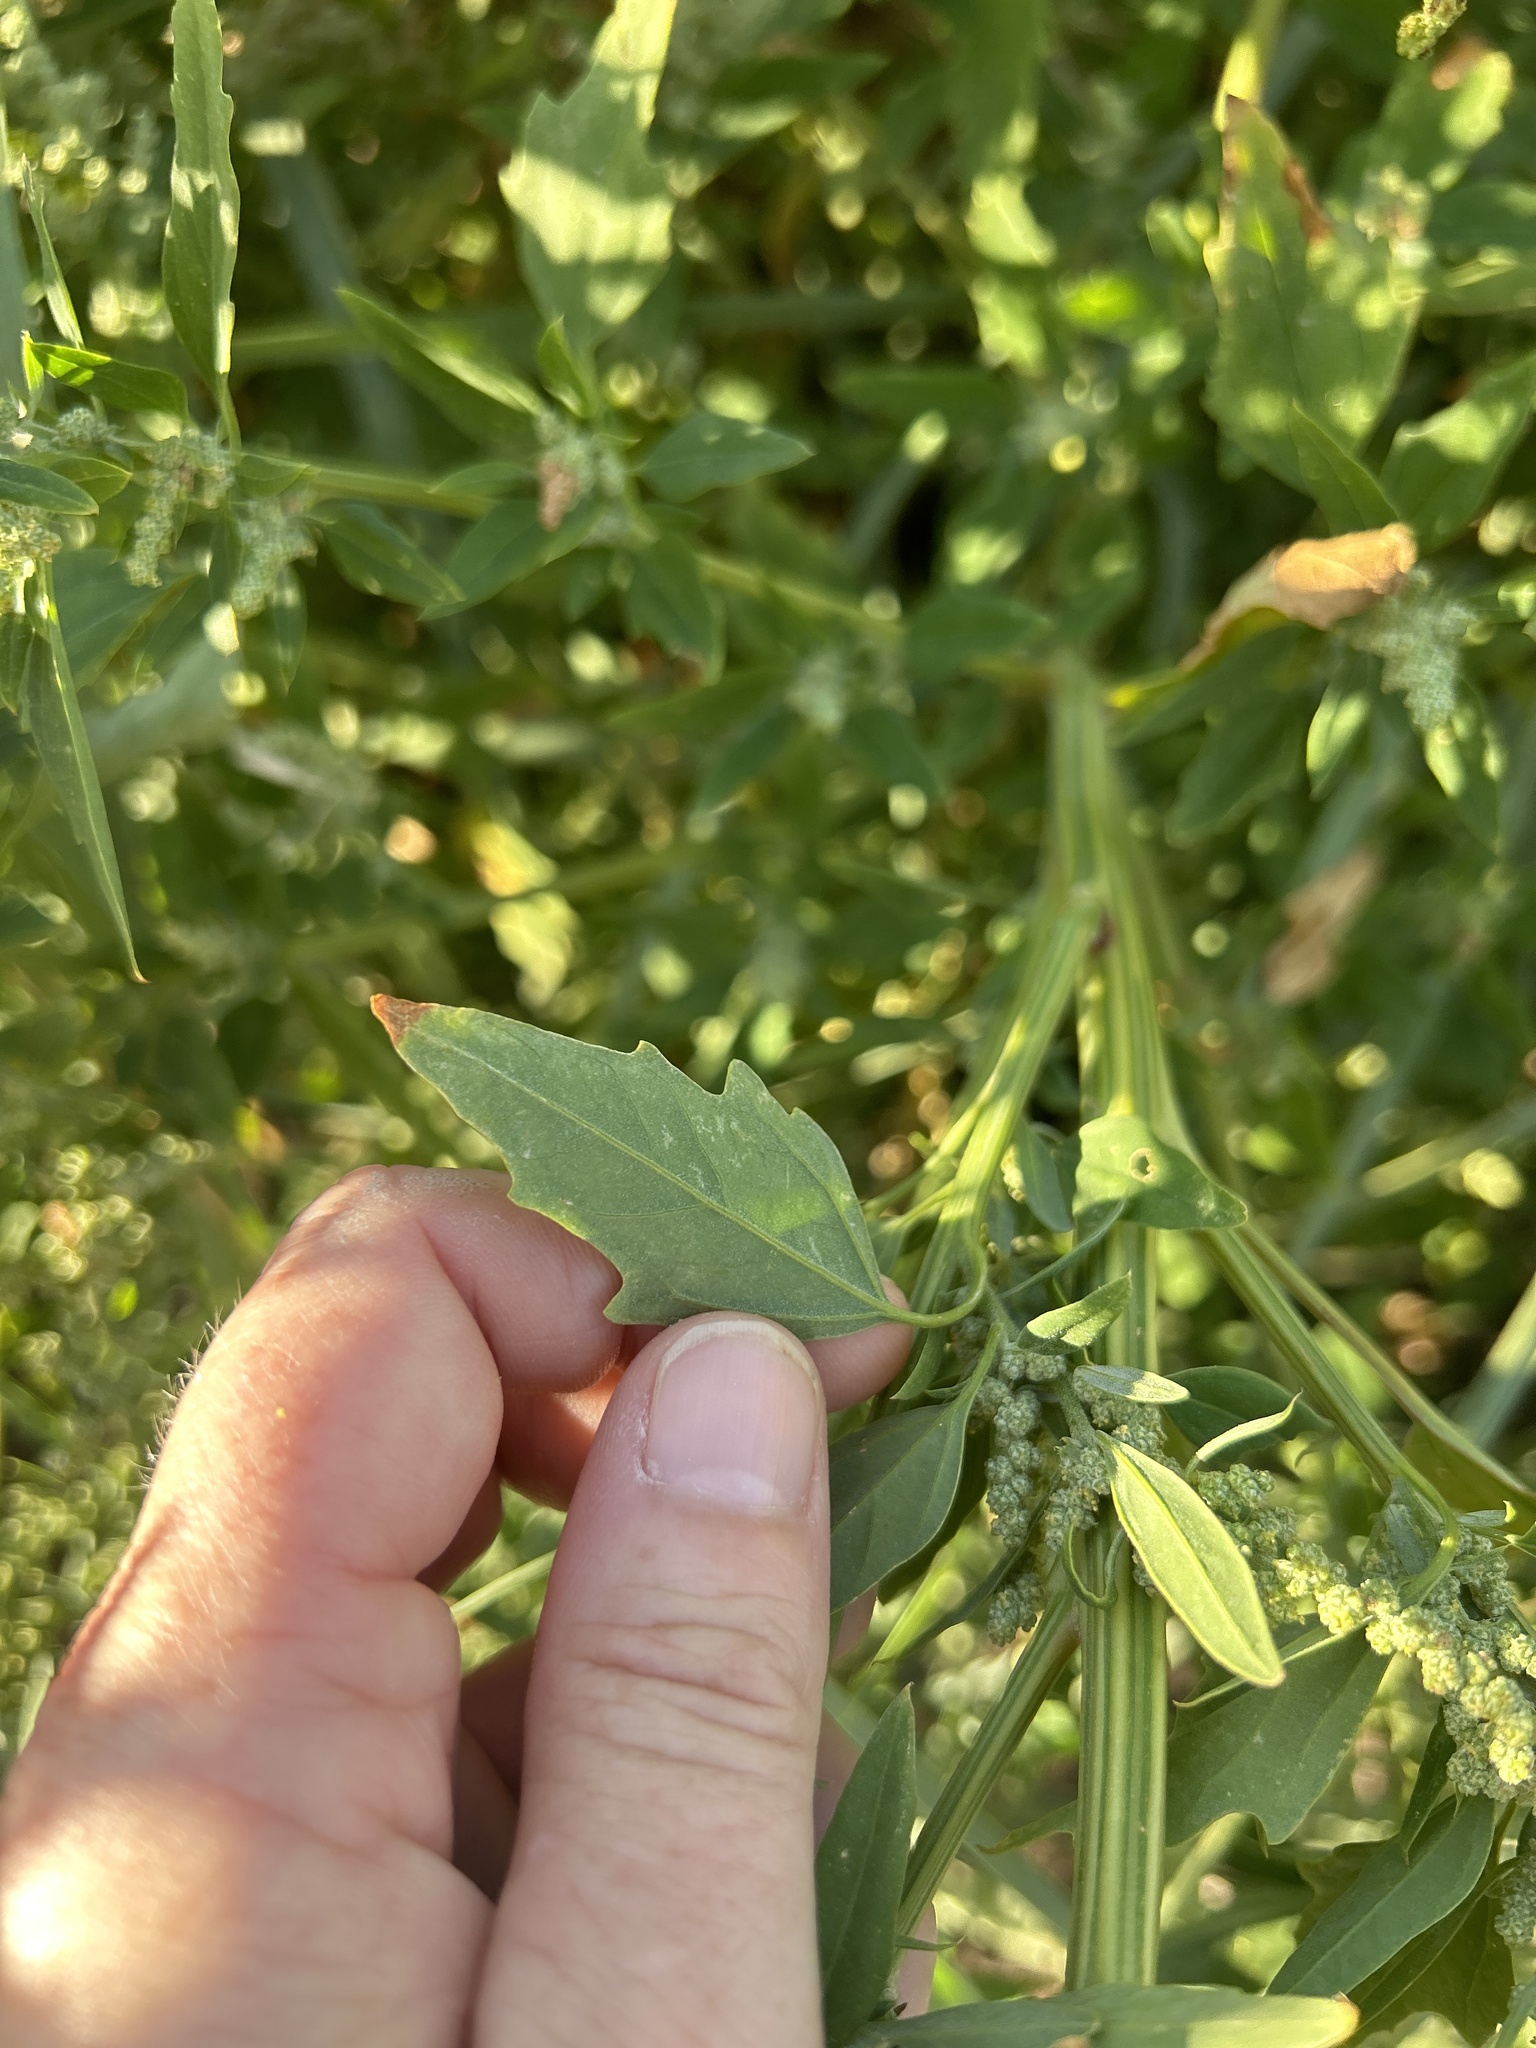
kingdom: Plantae
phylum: Tracheophyta
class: Magnoliopsida
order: Caryophyllales
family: Amaranthaceae
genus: Chenopodium
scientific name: Chenopodium album
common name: Fat-hen
